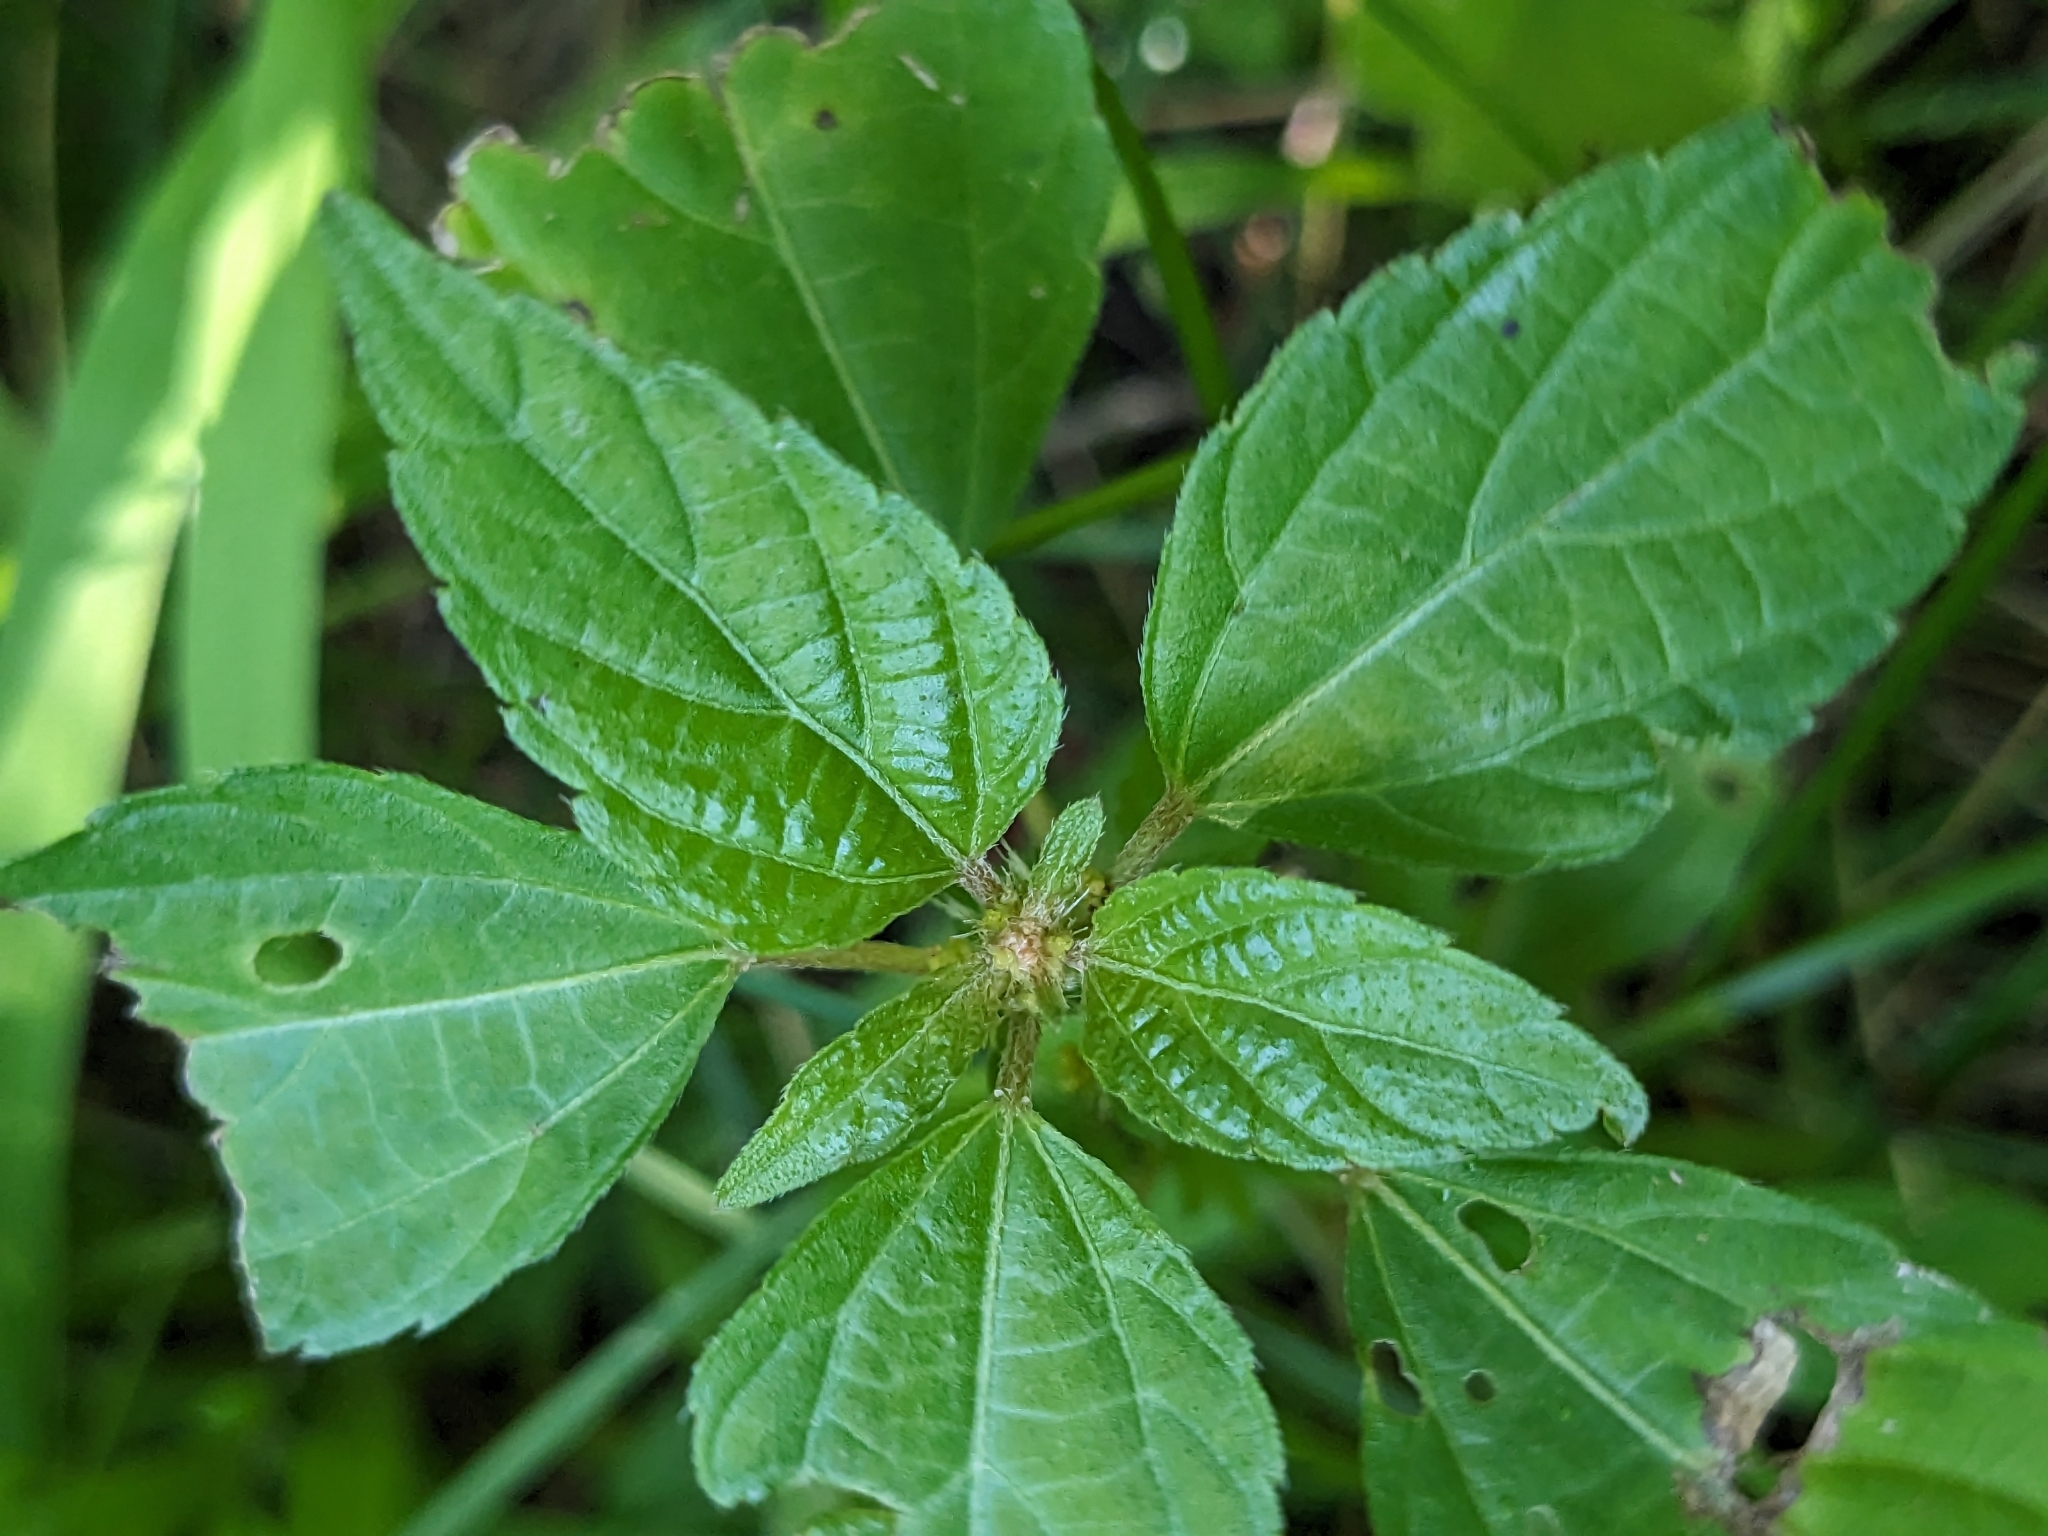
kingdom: Plantae
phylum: Tracheophyta
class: Magnoliopsida
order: Malpighiales
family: Euphorbiaceae
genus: Acalypha
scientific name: Acalypha rhomboidea
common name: Rhombic copperleaf
